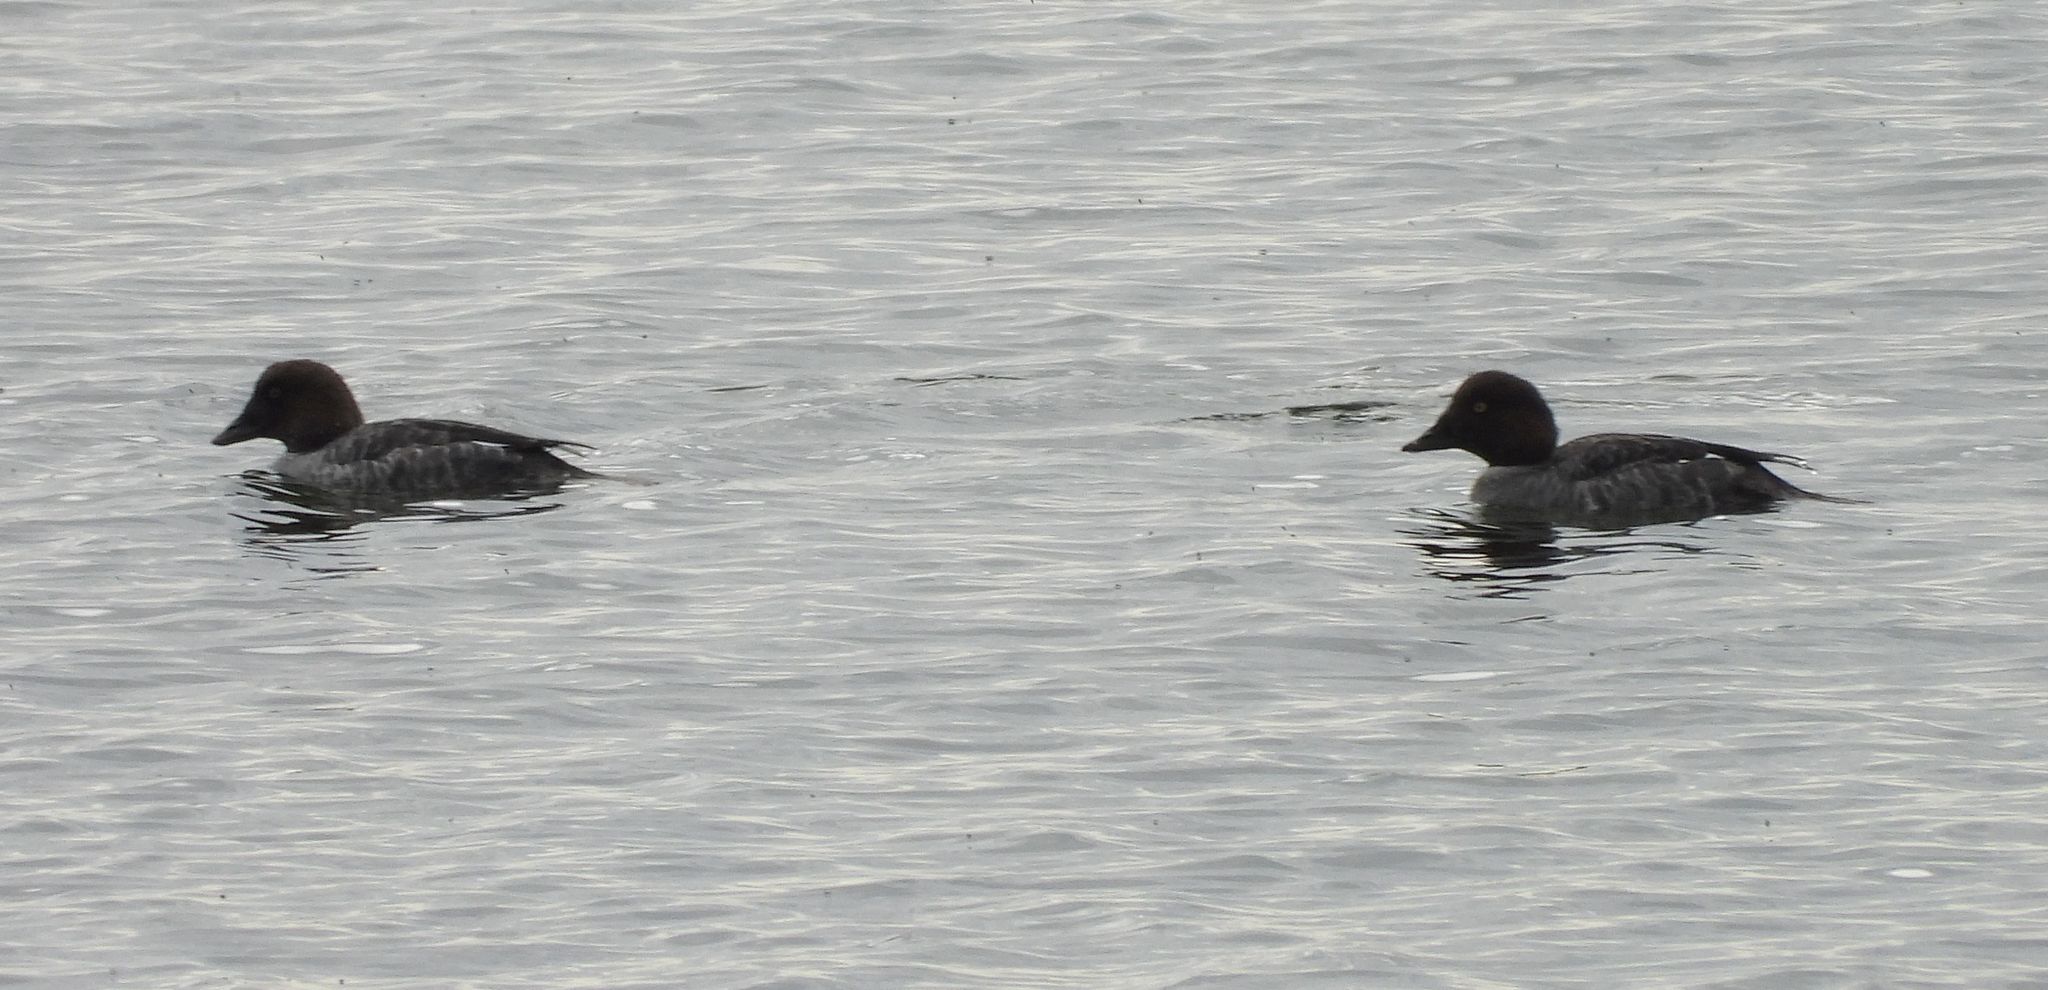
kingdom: Animalia
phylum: Chordata
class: Aves
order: Anseriformes
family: Anatidae
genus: Bucephala
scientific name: Bucephala clangula
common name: Common goldeneye
